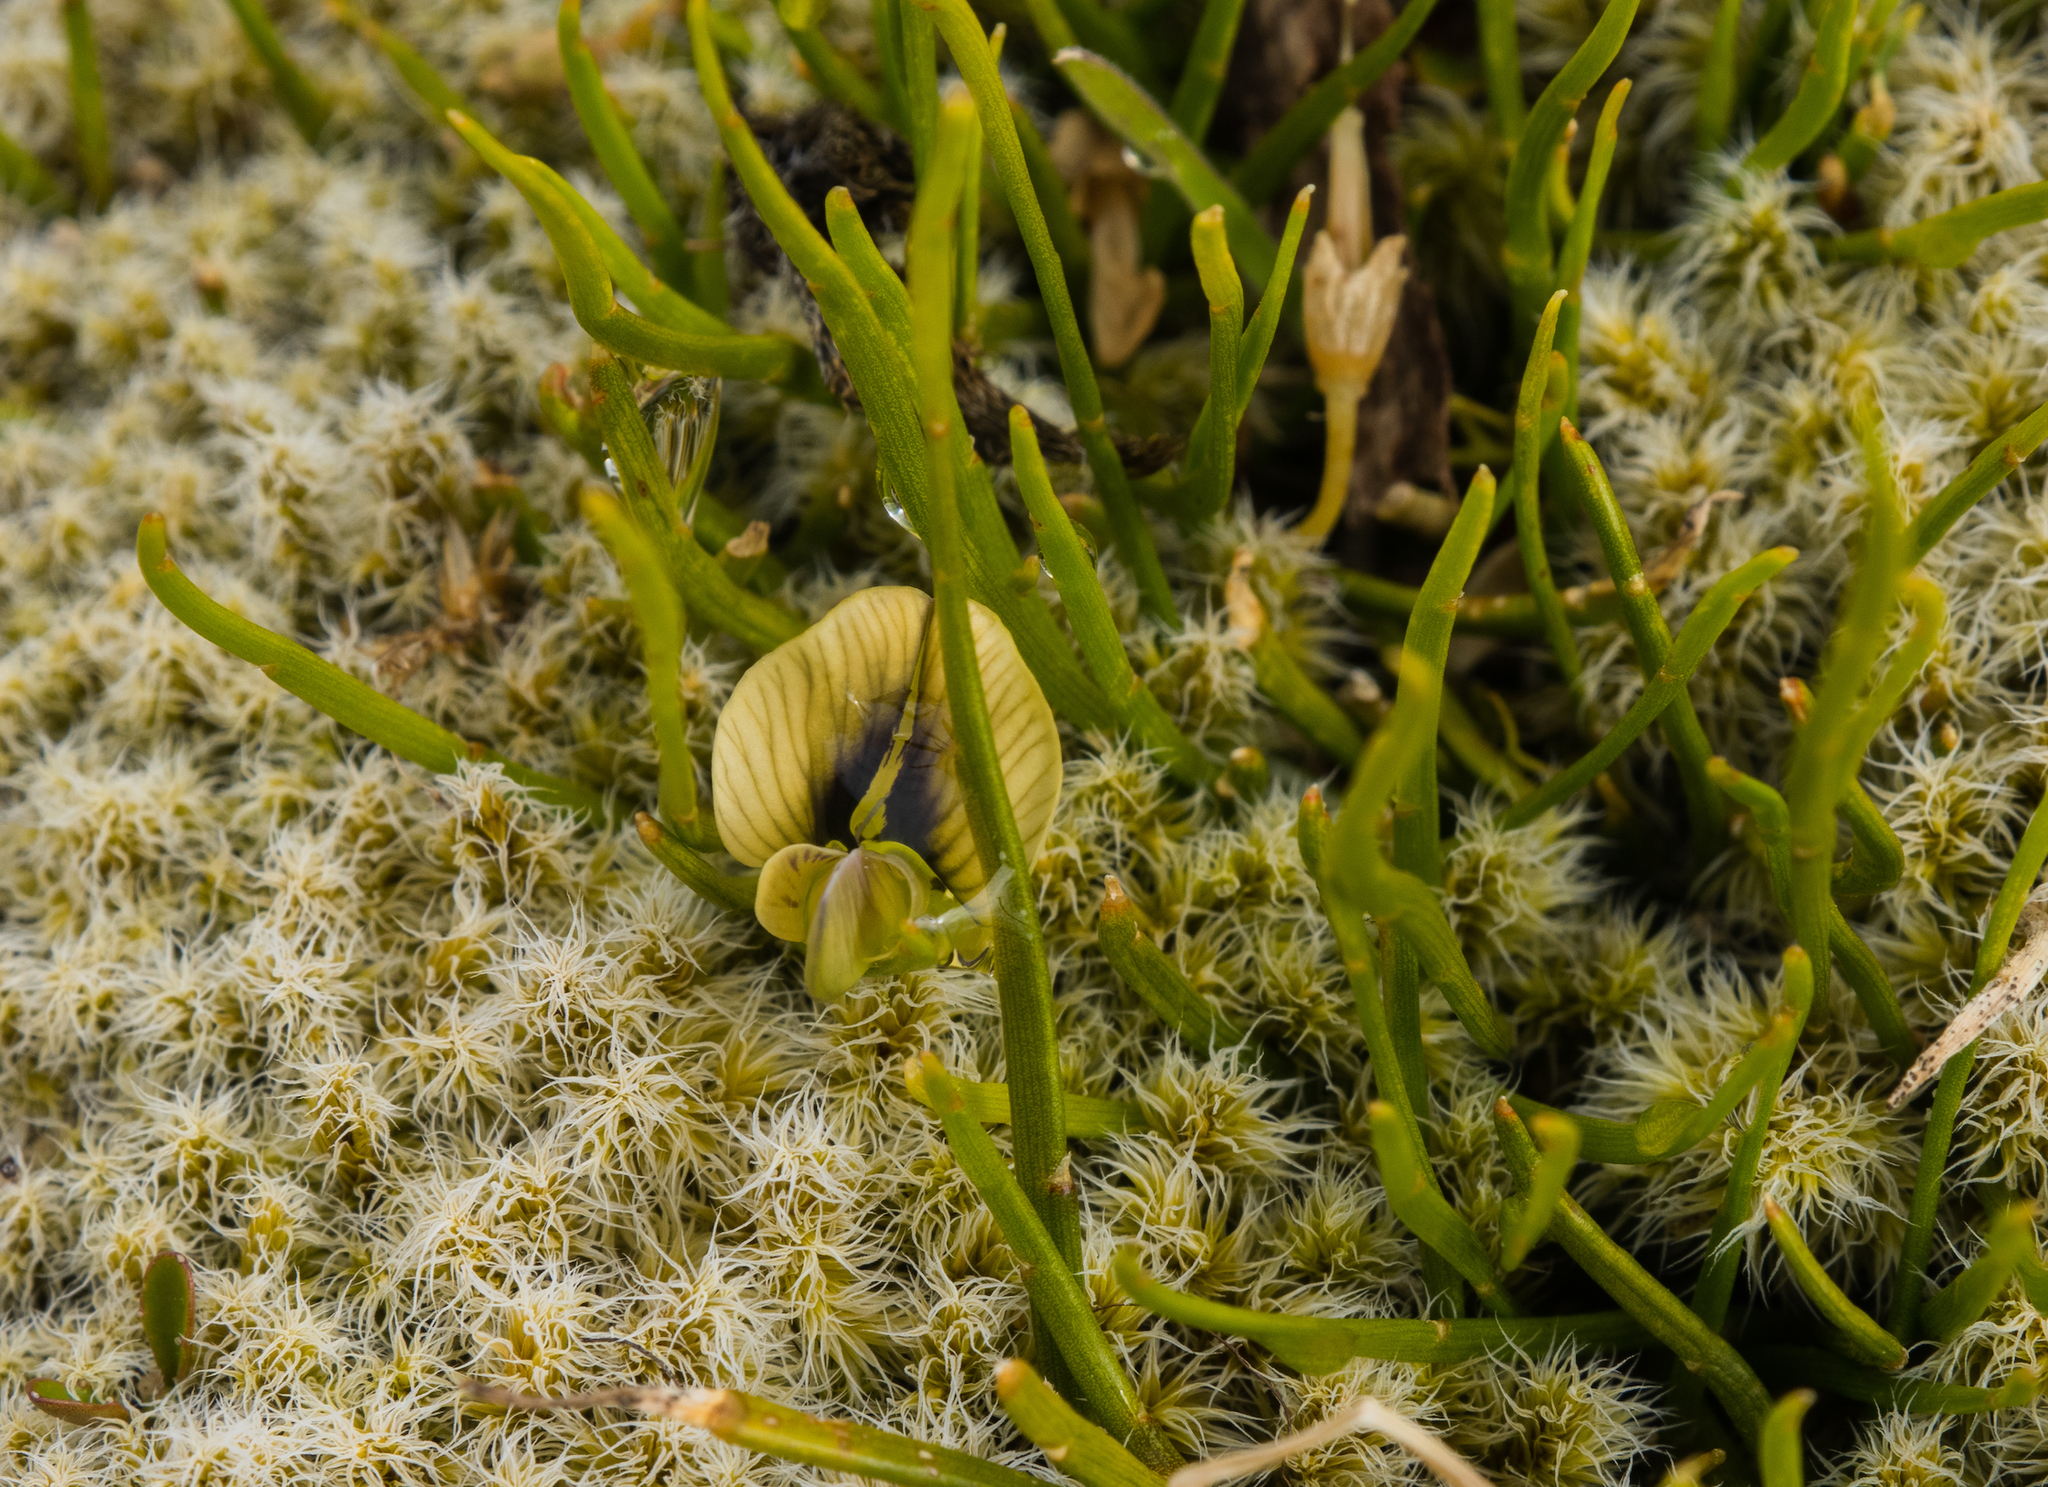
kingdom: Plantae
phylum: Tracheophyta
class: Magnoliopsida
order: Fabales
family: Fabaceae
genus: Carmichaelia
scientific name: Carmichaelia uniflora
